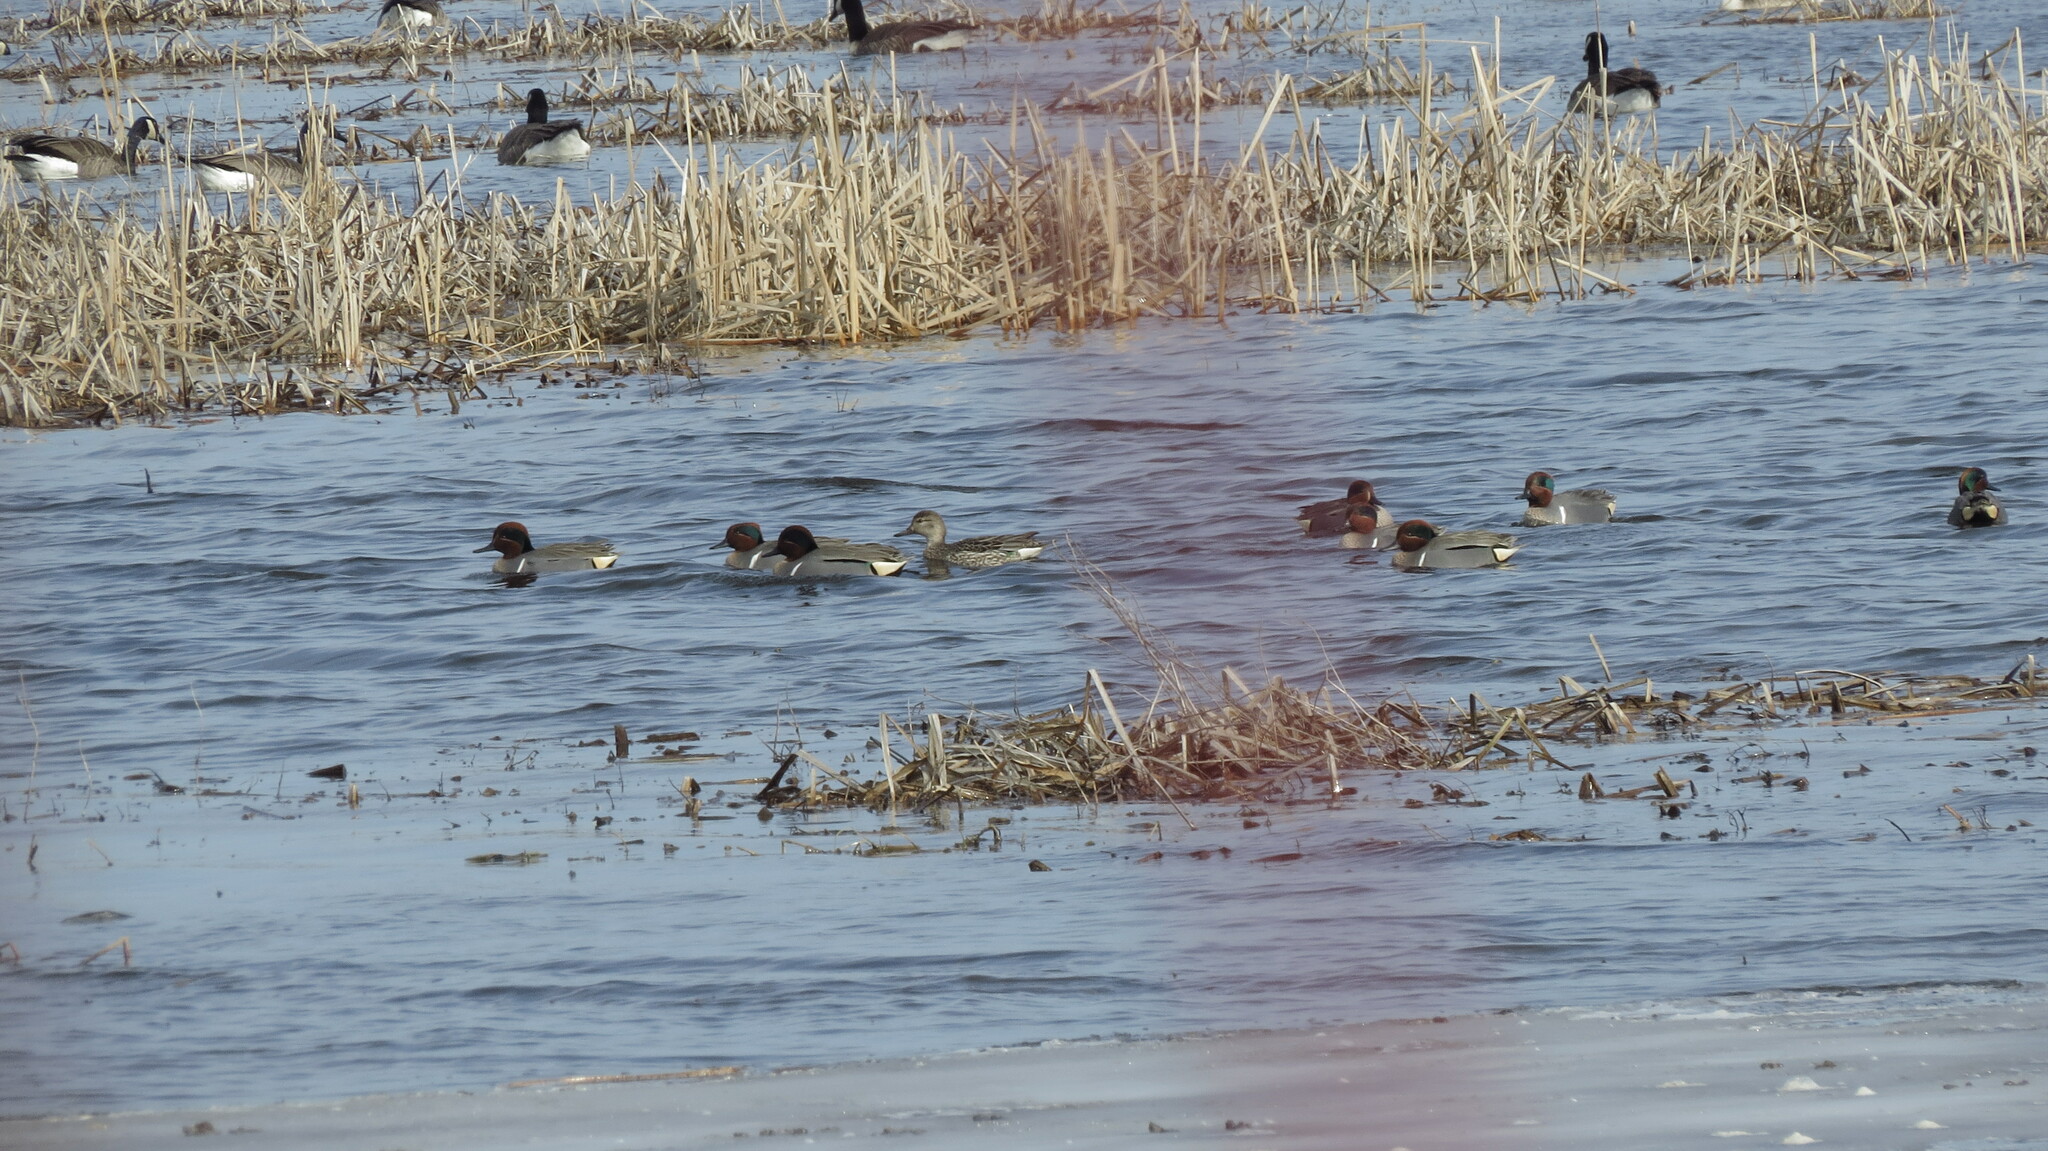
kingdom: Animalia
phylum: Chordata
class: Aves
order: Anseriformes
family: Anatidae
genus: Anas
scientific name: Anas carolinensis
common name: Green-winged teal
